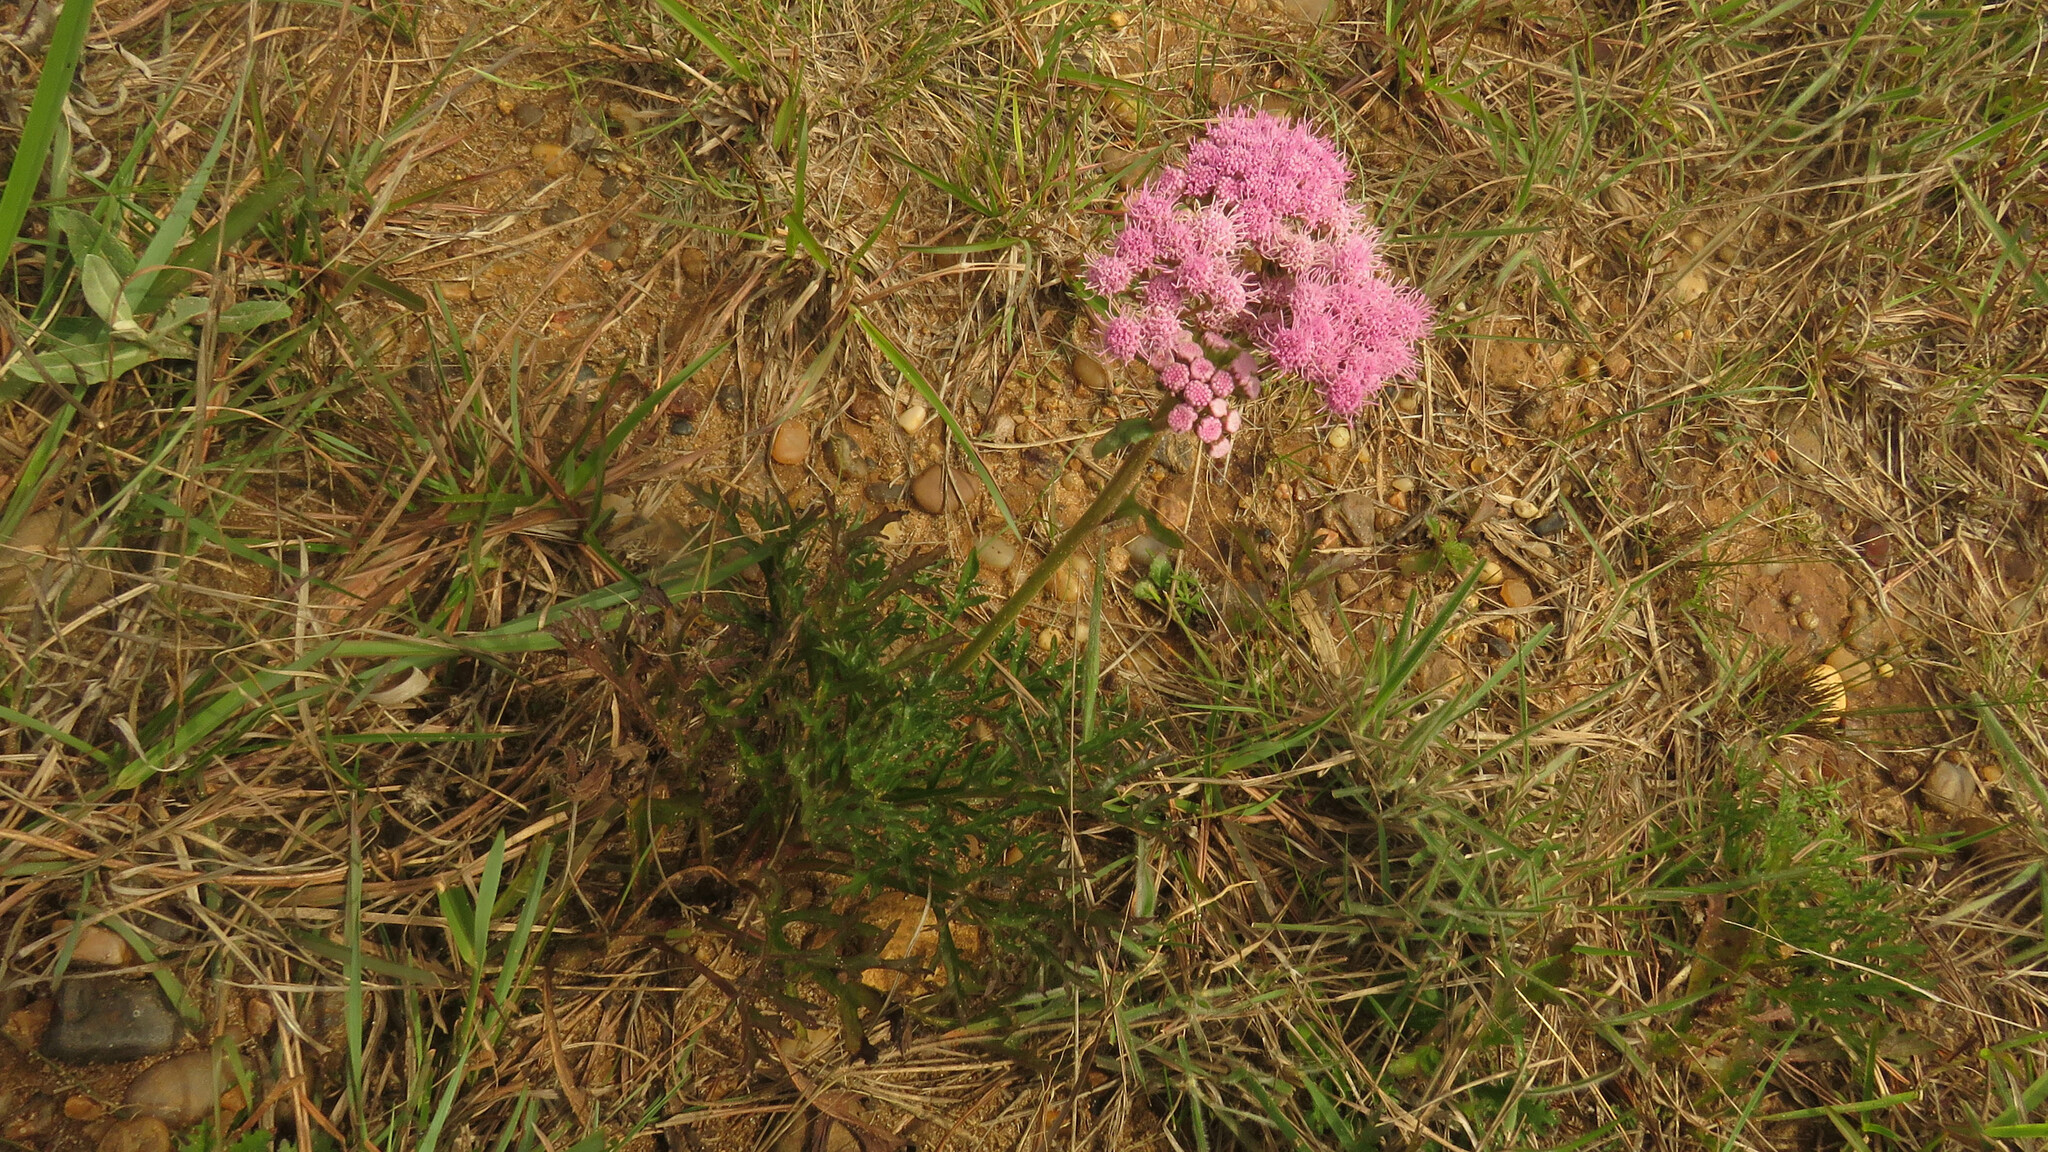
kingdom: Plantae
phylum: Tracheophyta
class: Magnoliopsida
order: Asterales
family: Asteraceae
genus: Gyptis
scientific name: Gyptis tanacetifolia
